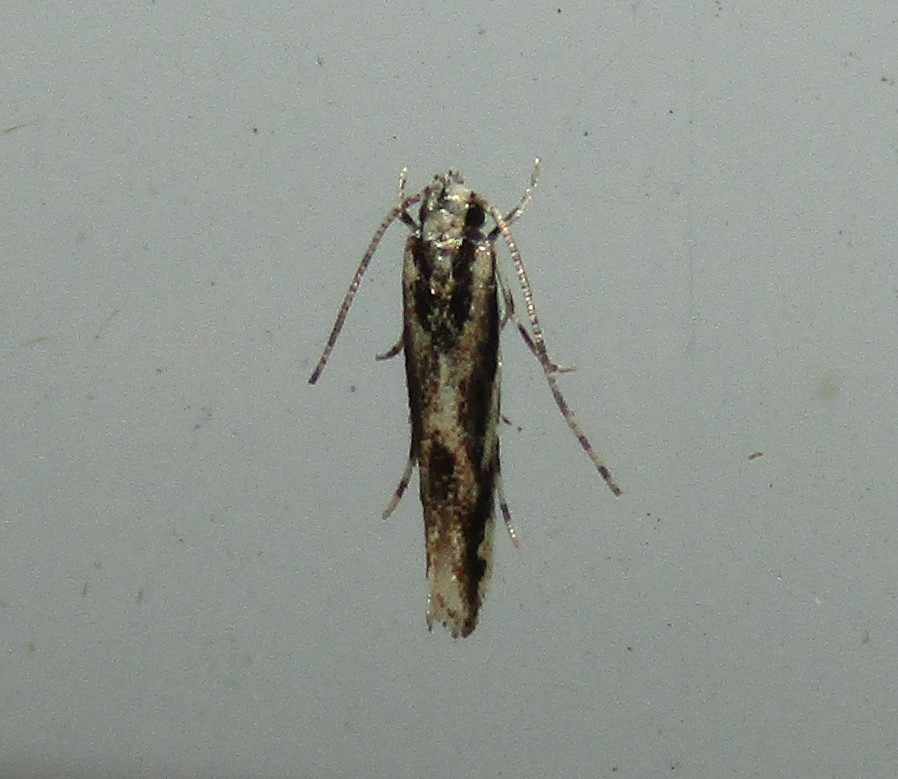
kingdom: Animalia
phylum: Arthropoda
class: Insecta
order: Lepidoptera
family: Cosmopterigidae
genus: Melanocinclis
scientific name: Melanocinclis lineigera
